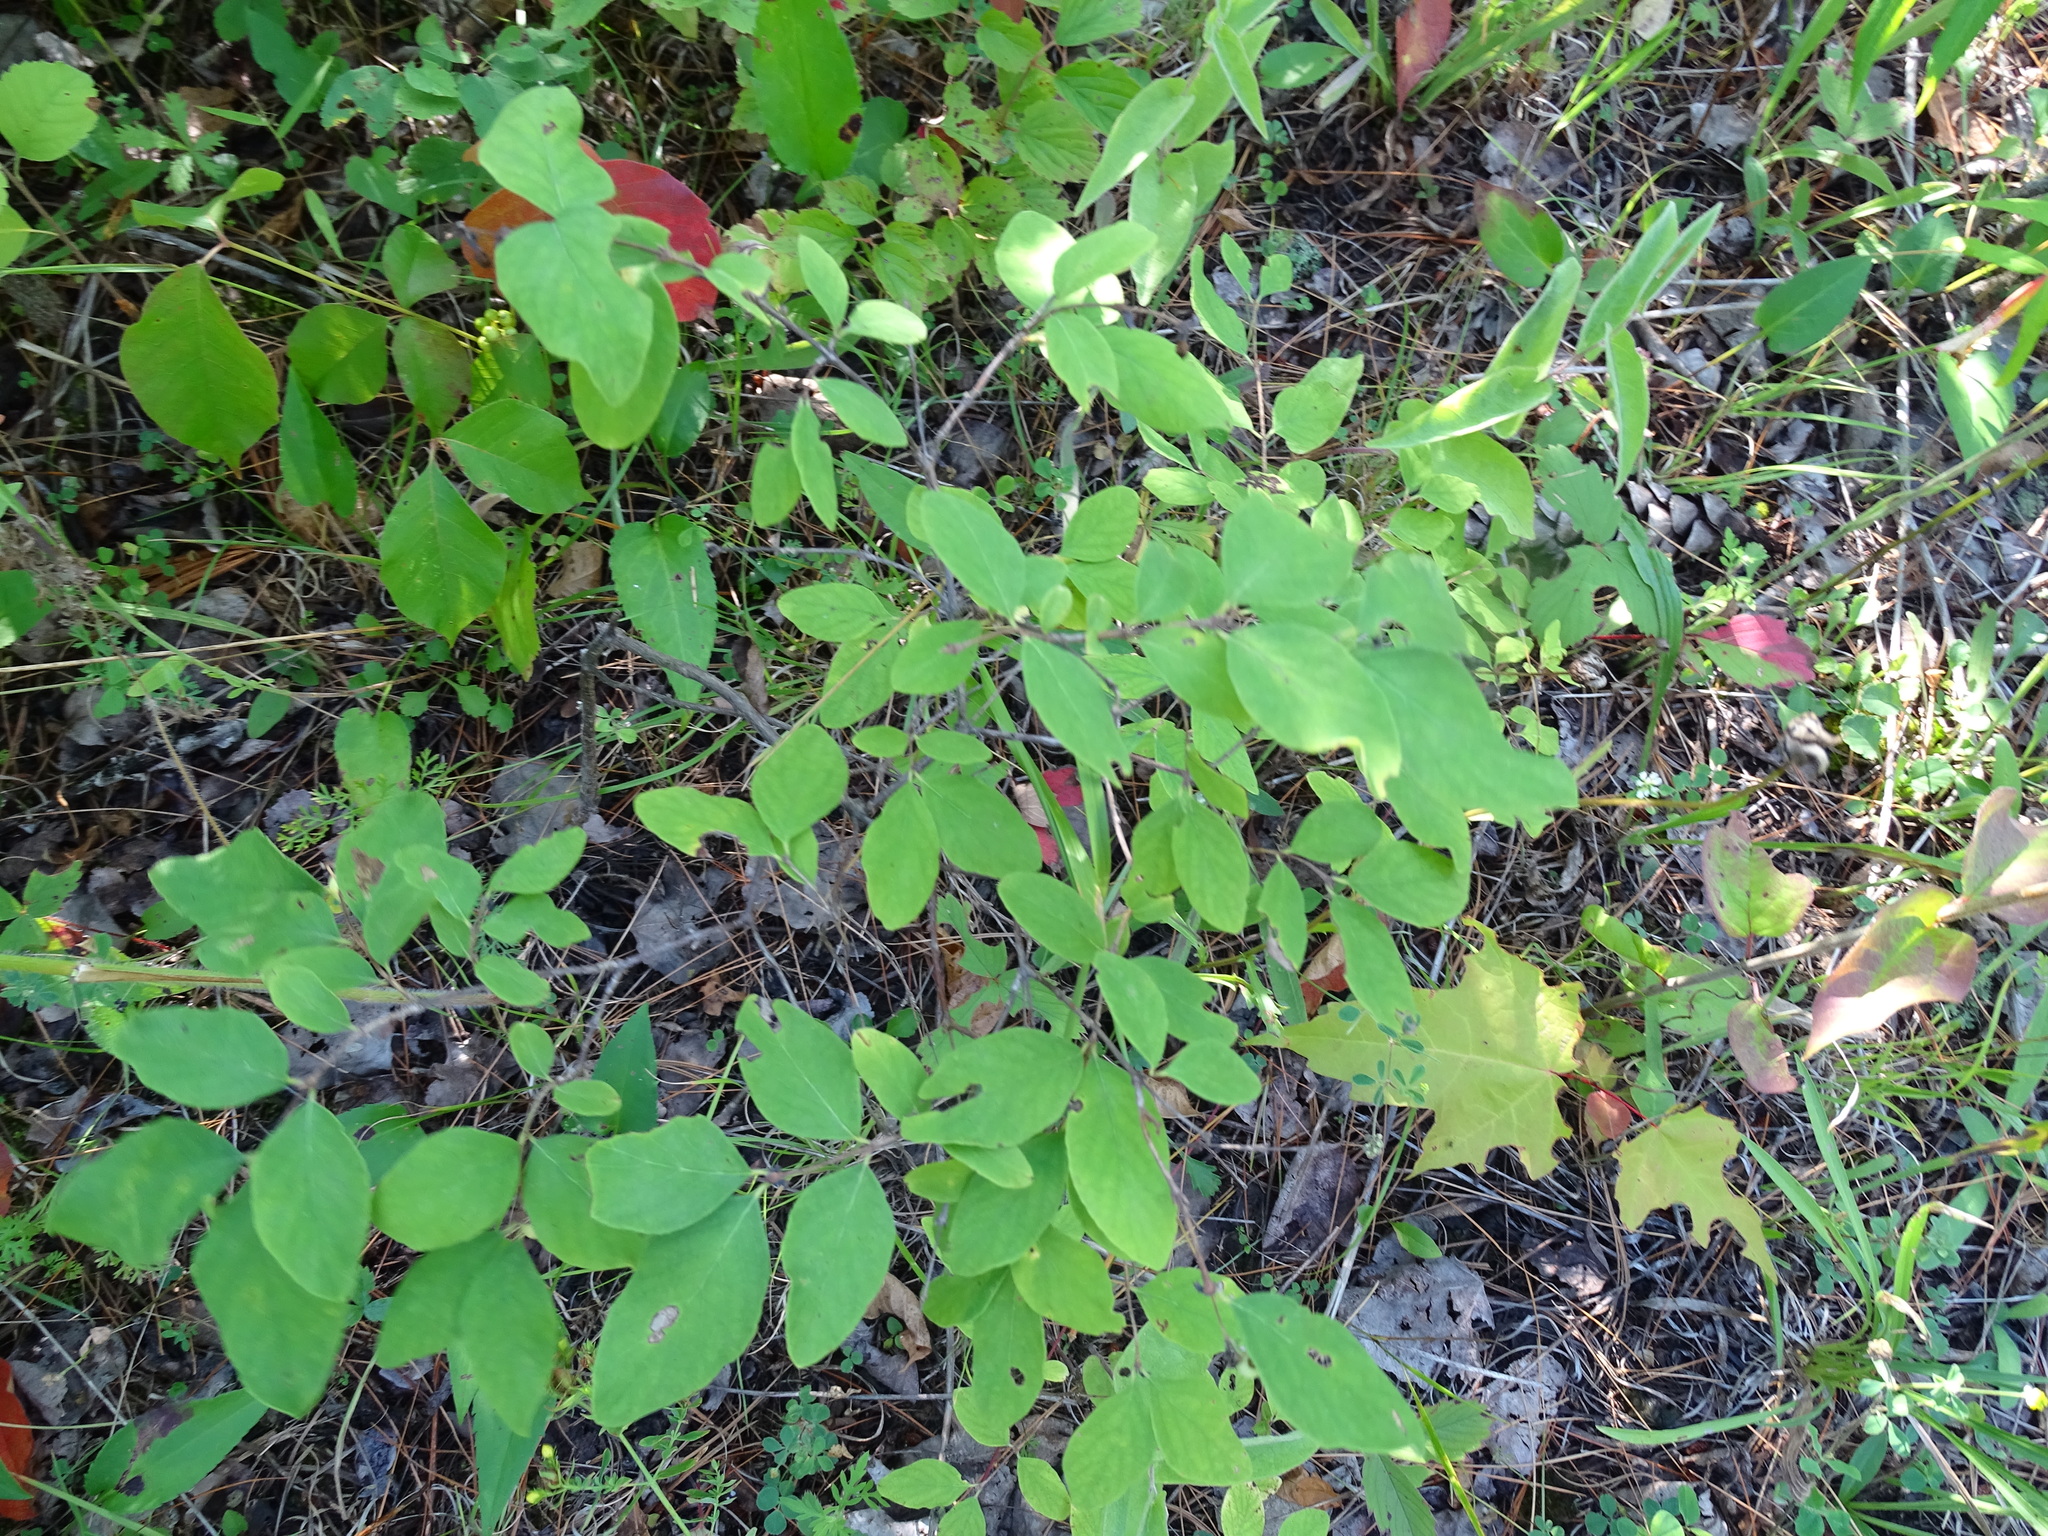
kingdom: Plantae
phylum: Tracheophyta
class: Magnoliopsida
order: Dipsacales
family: Caprifoliaceae
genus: Symphoricarpos
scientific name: Symphoricarpos albus
